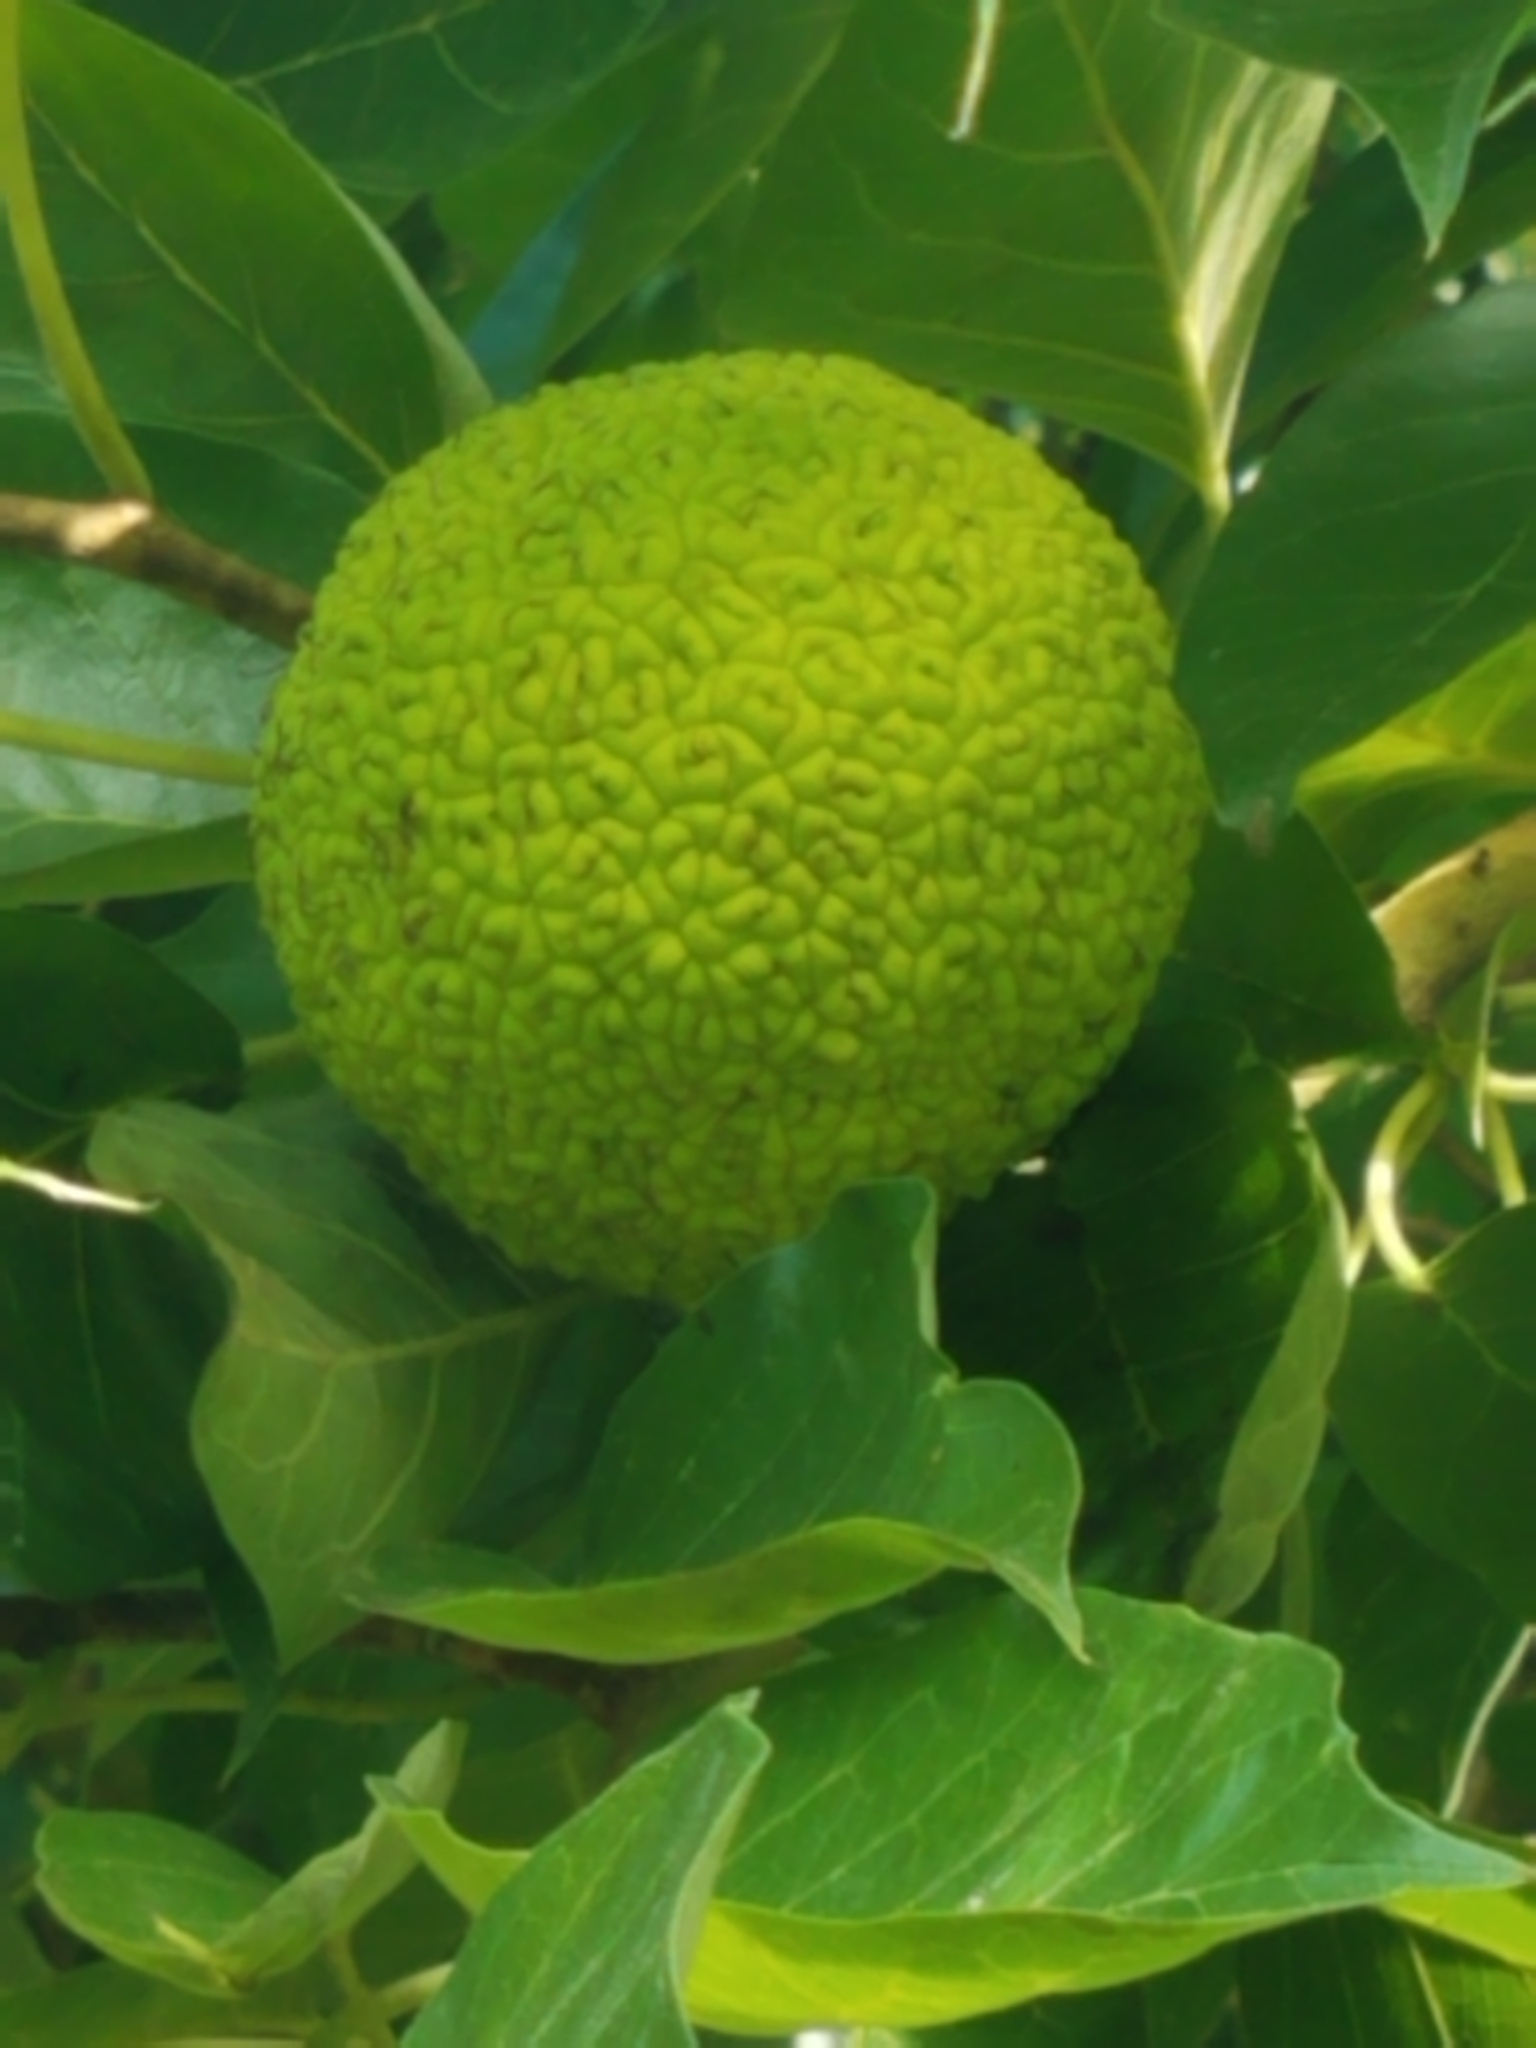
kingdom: Plantae
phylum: Tracheophyta
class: Magnoliopsida
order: Rosales
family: Moraceae
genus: Maclura
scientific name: Maclura pomifera
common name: Osage-orange
